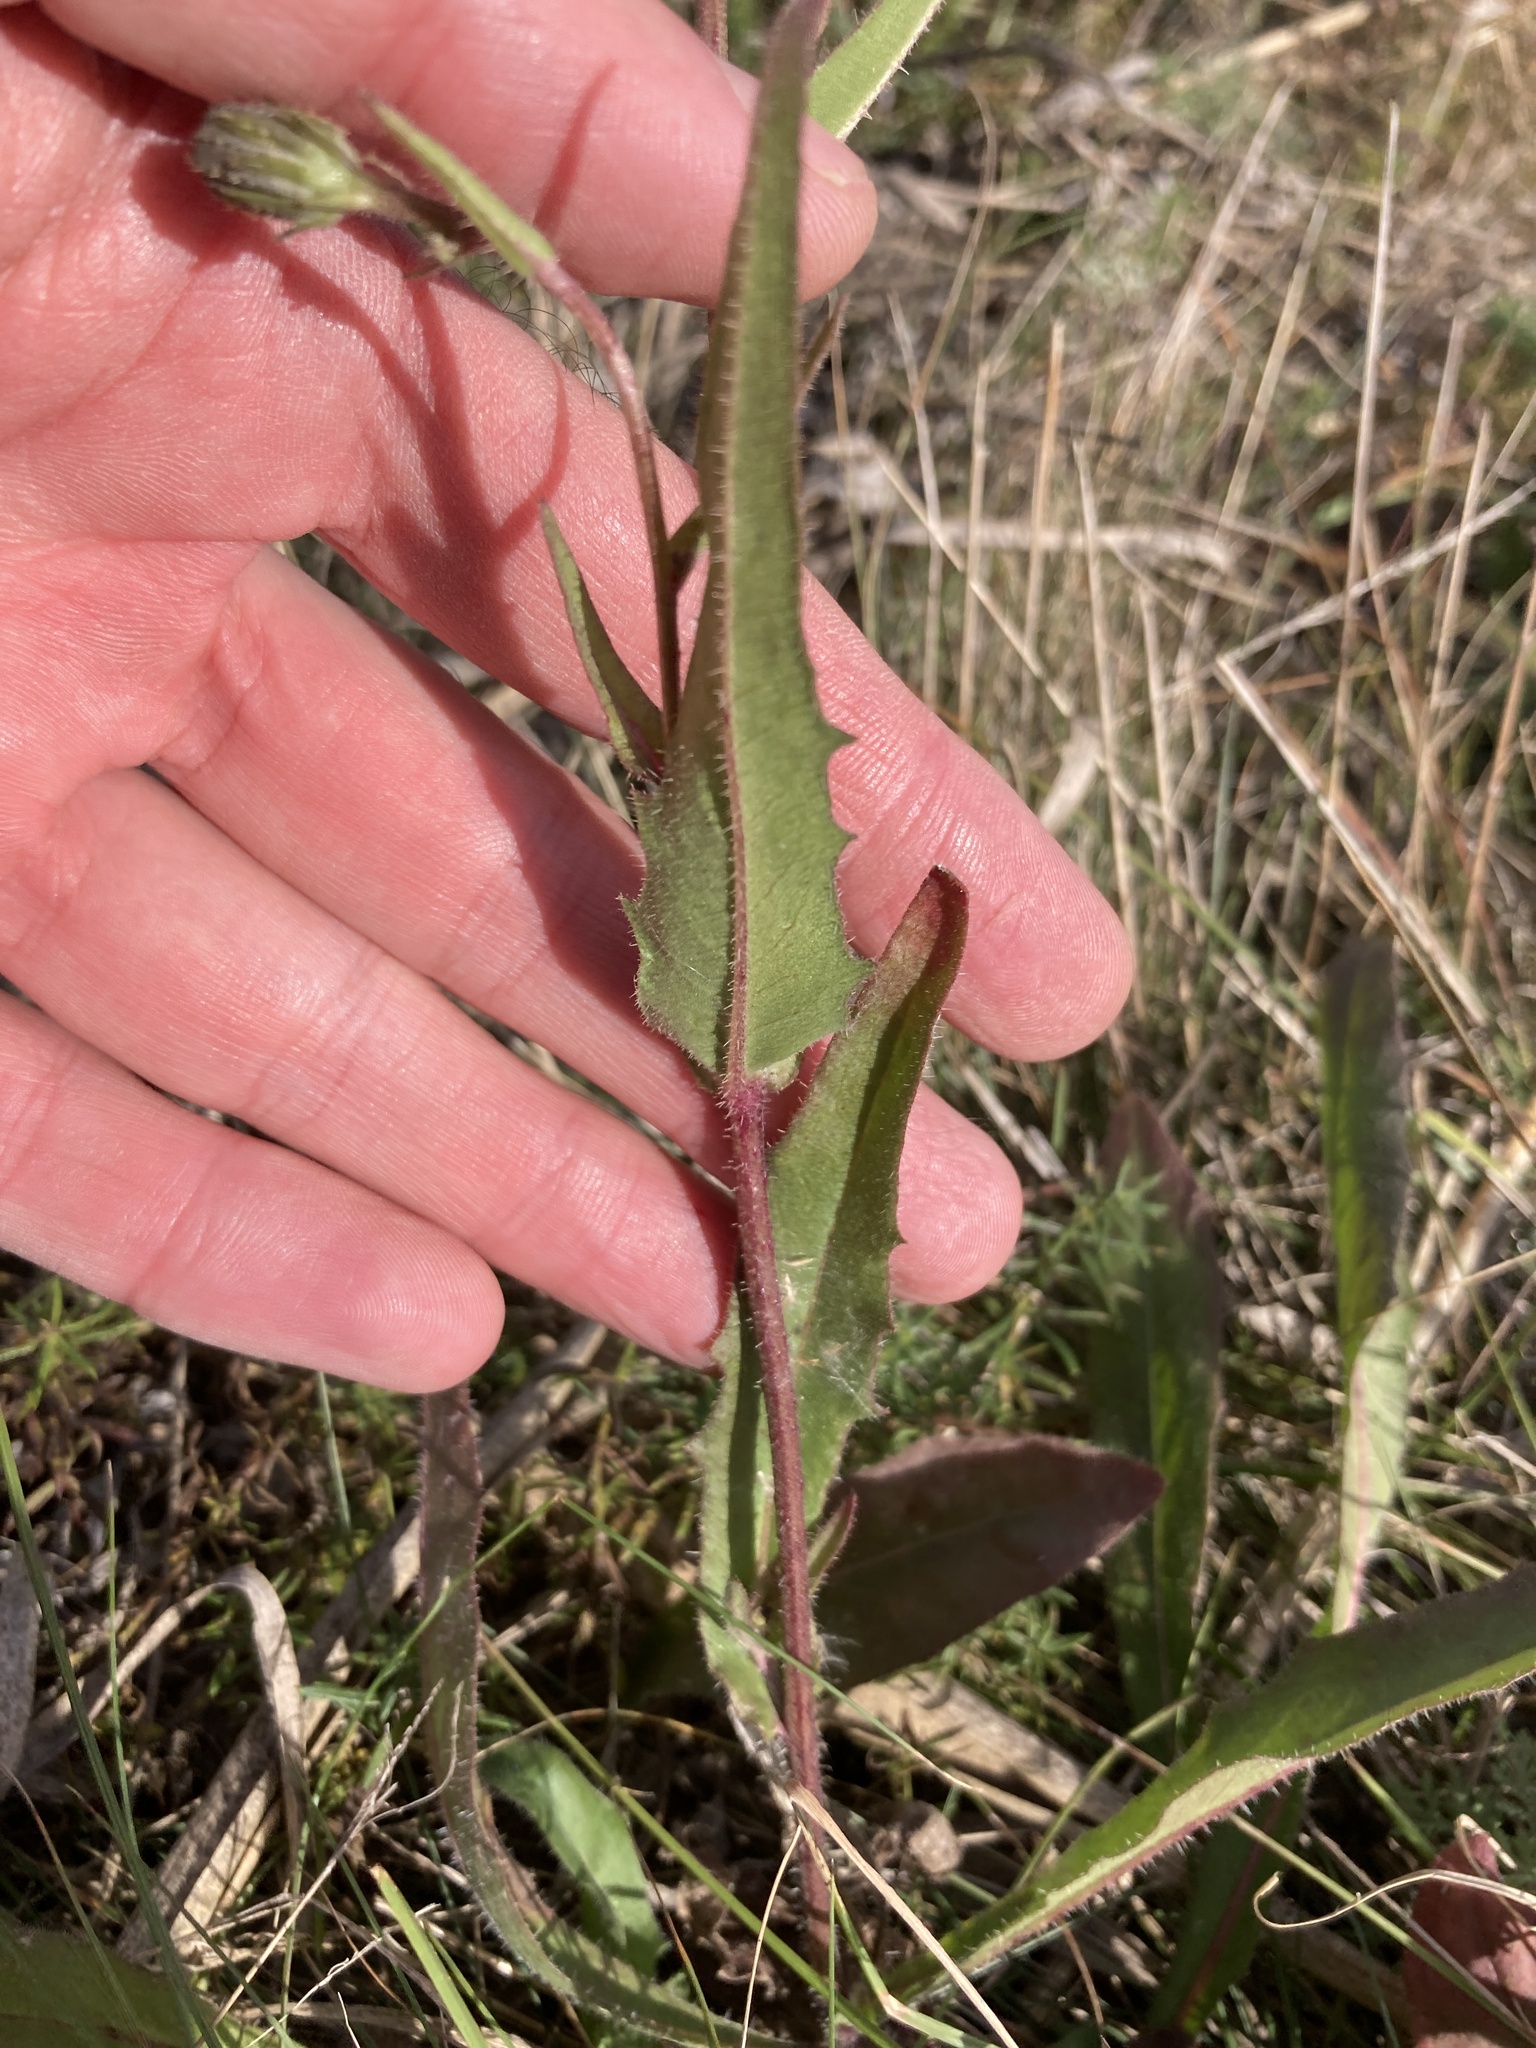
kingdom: Plantae
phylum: Tracheophyta
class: Magnoliopsida
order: Asterales
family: Asteraceae
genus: Picris
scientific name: Picris hieracioides
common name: Hawkweed oxtongue
